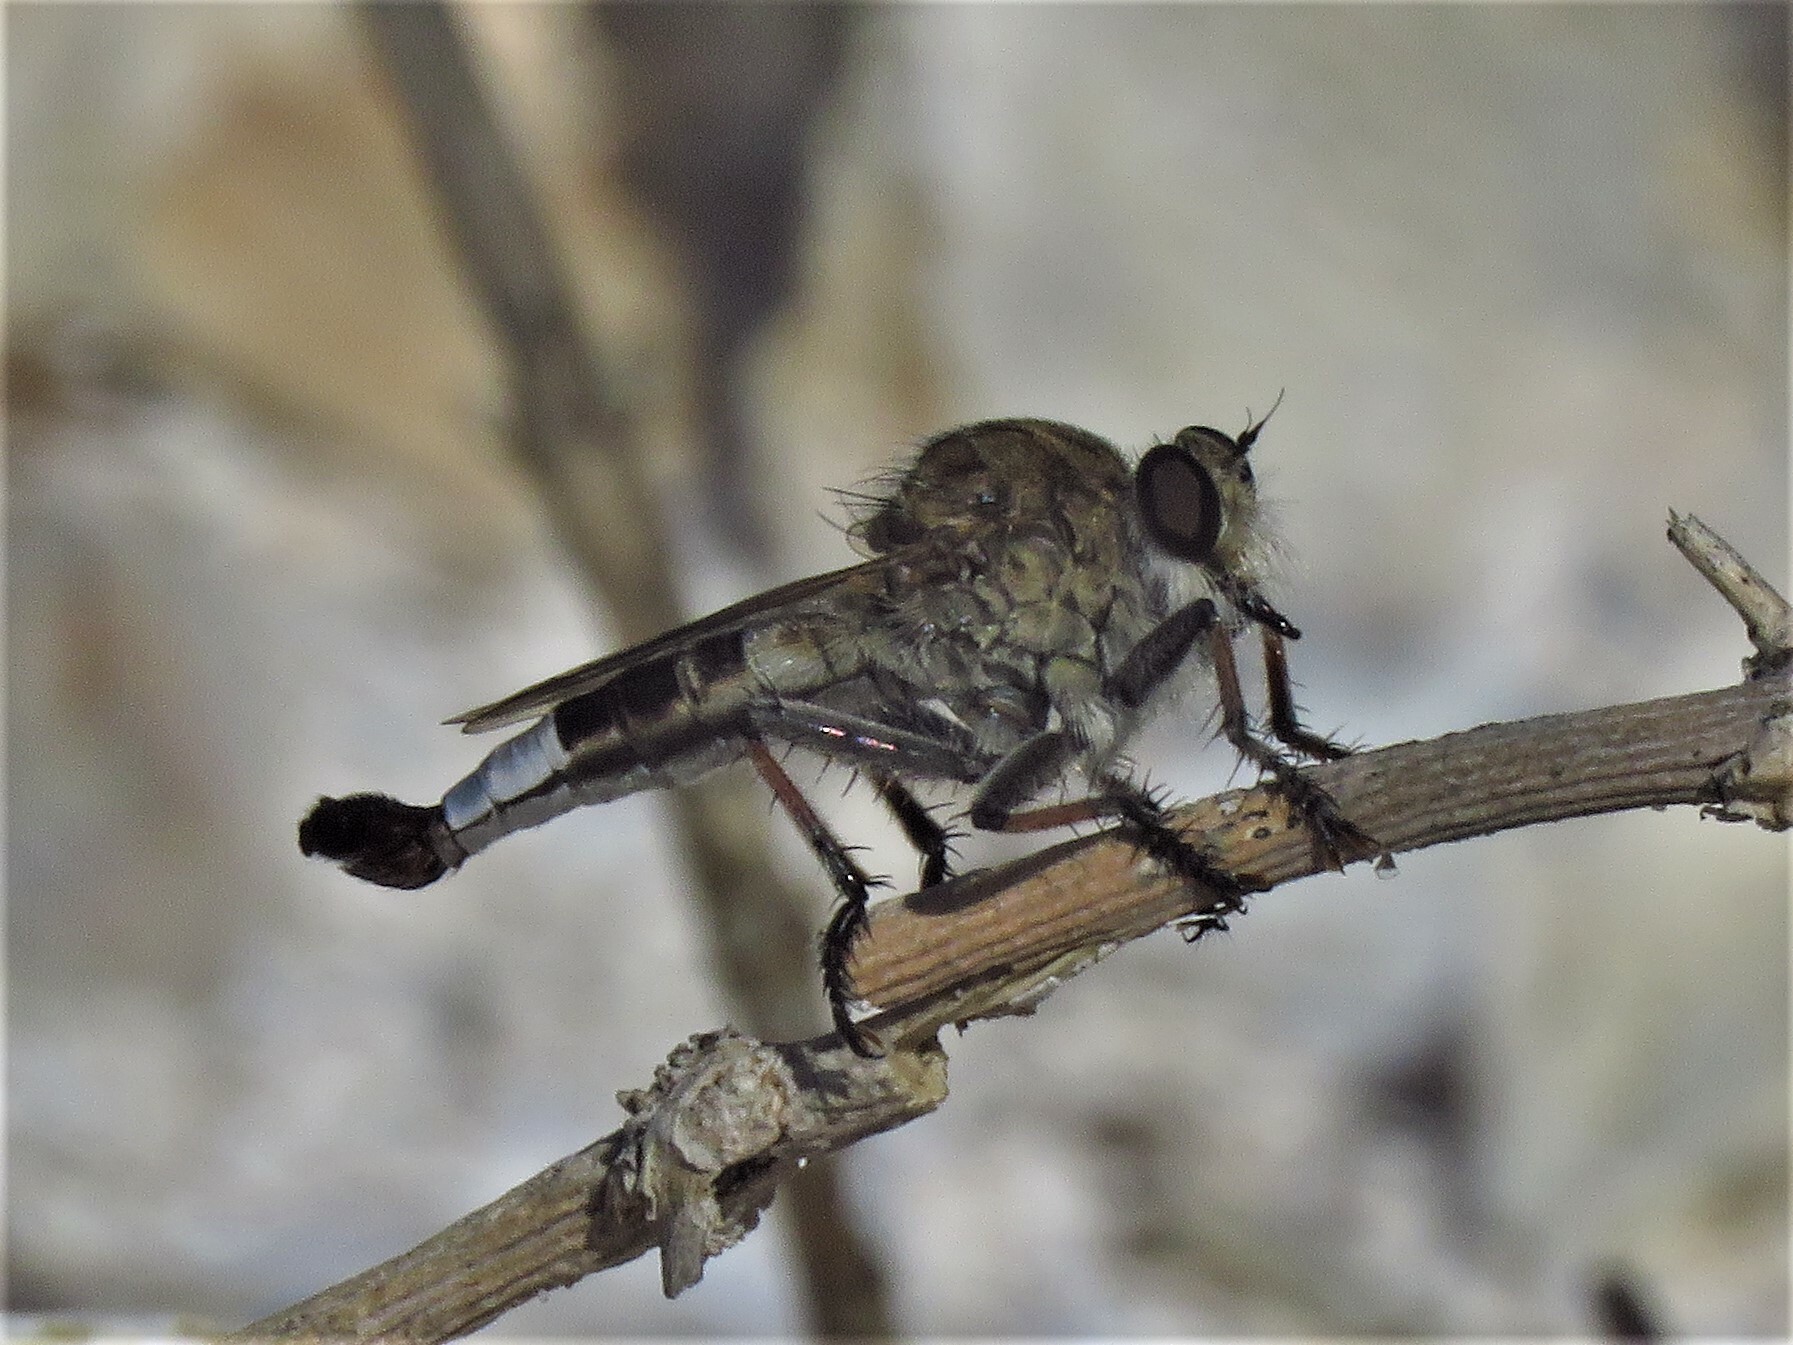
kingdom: Animalia
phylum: Arthropoda
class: Insecta
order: Diptera
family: Asilidae
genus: Efferia
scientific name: Efferia albibarbis
